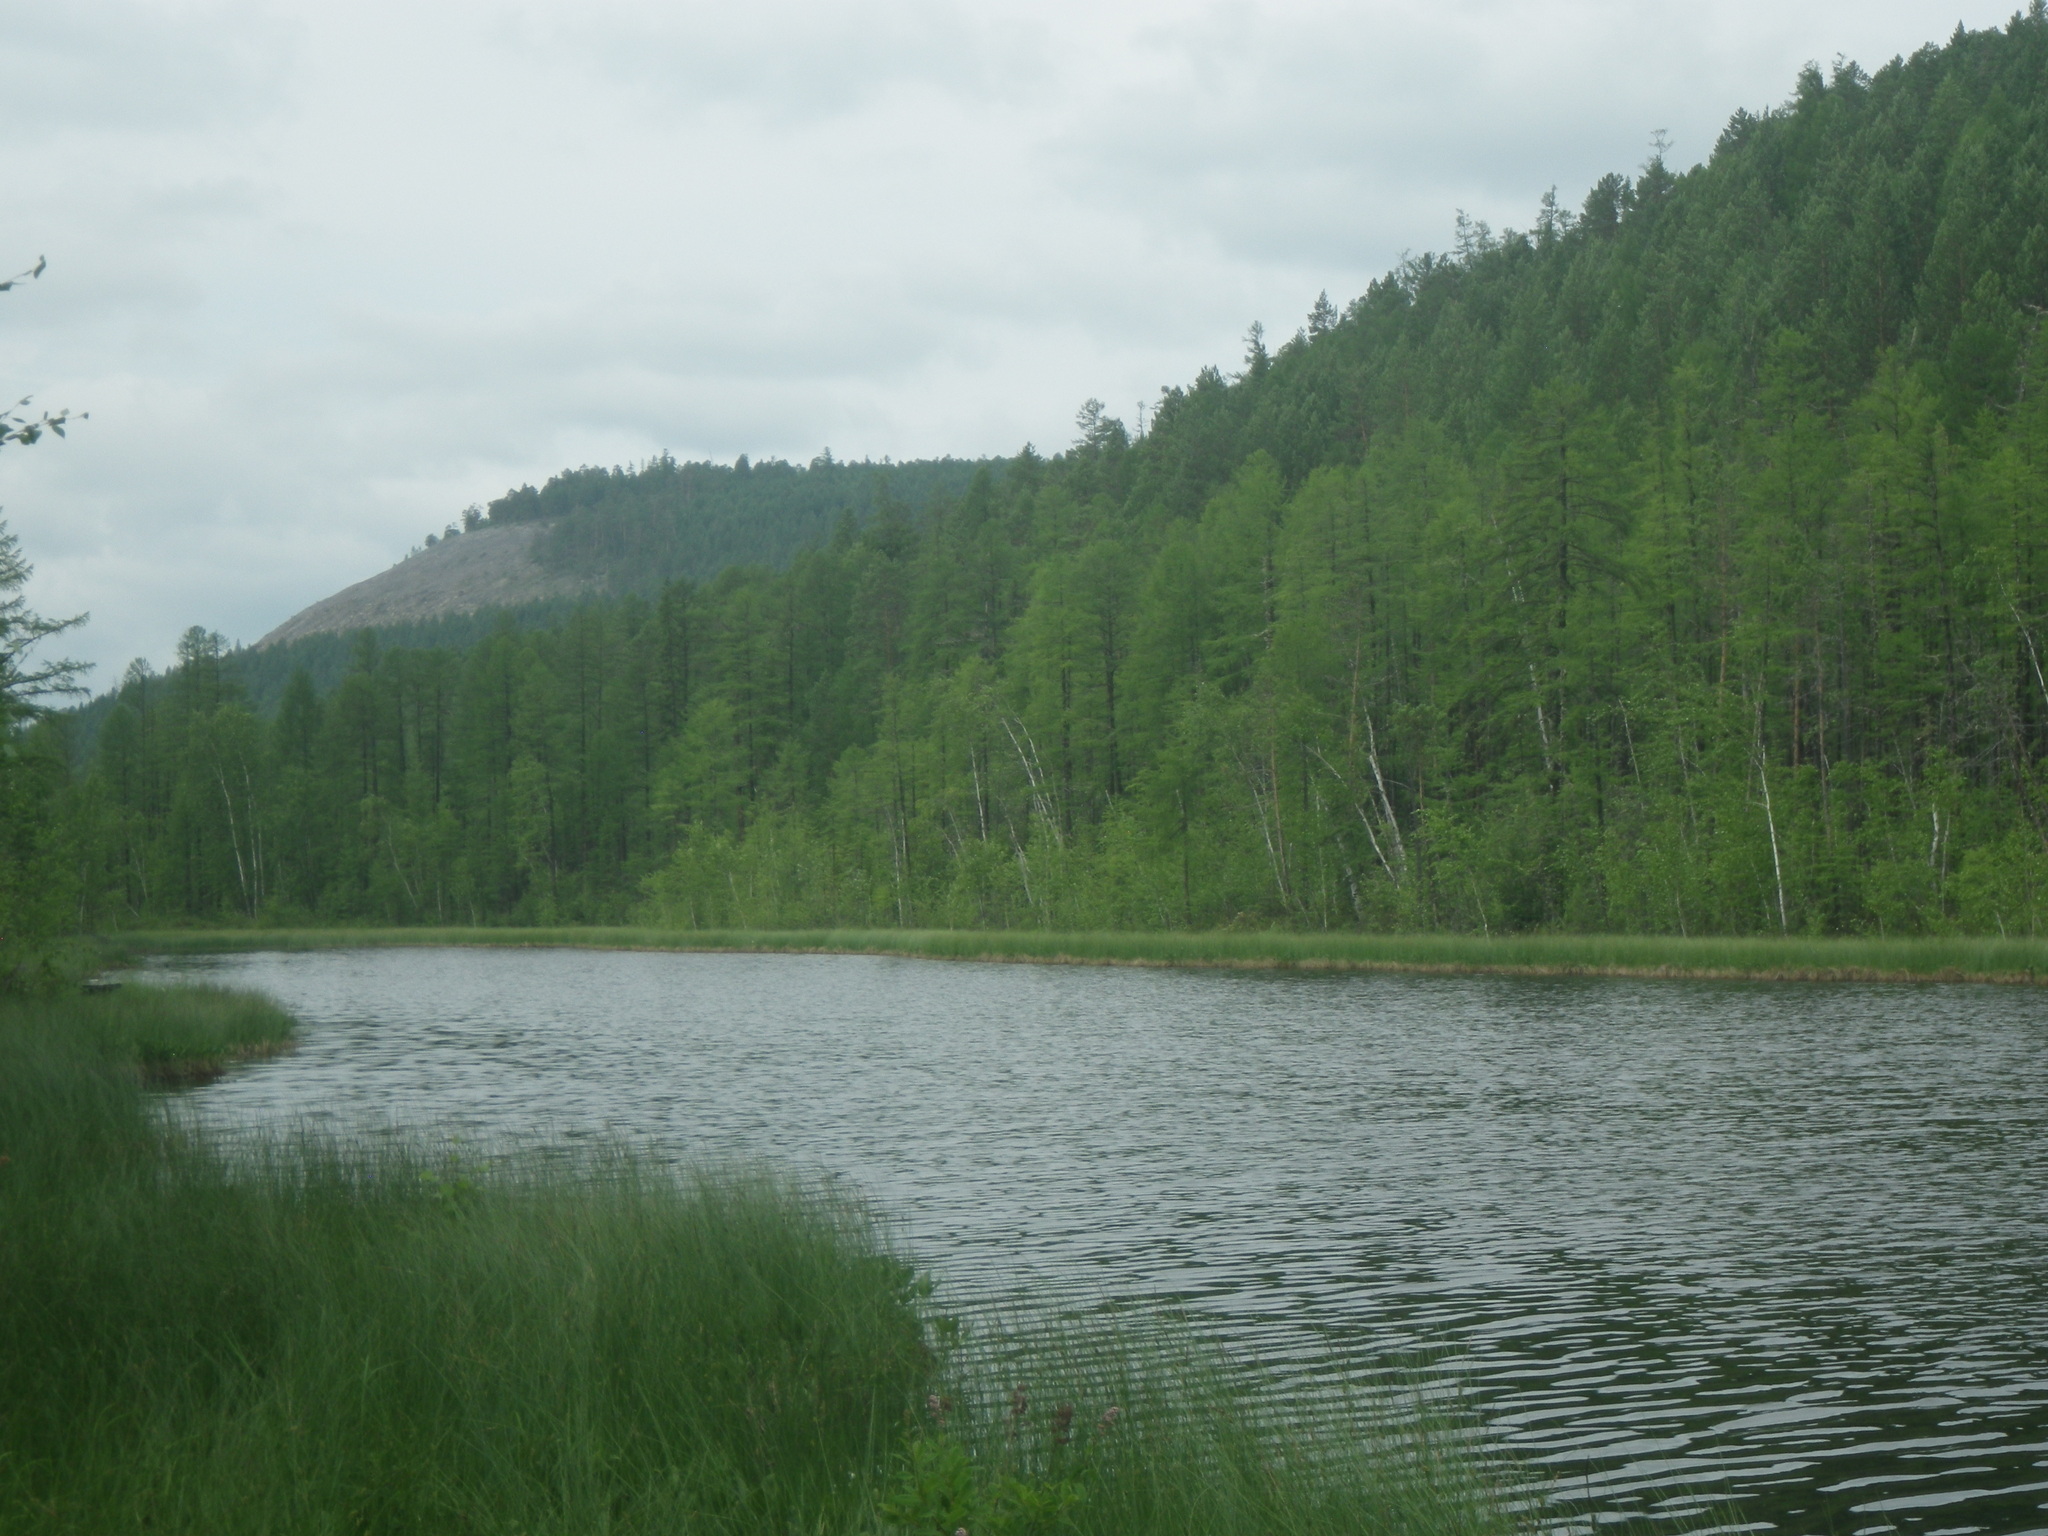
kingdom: Plantae
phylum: Tracheophyta
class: Pinopsida
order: Pinales
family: Pinaceae
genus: Larix
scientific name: Larix gmelinii
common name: Dahurian larch
